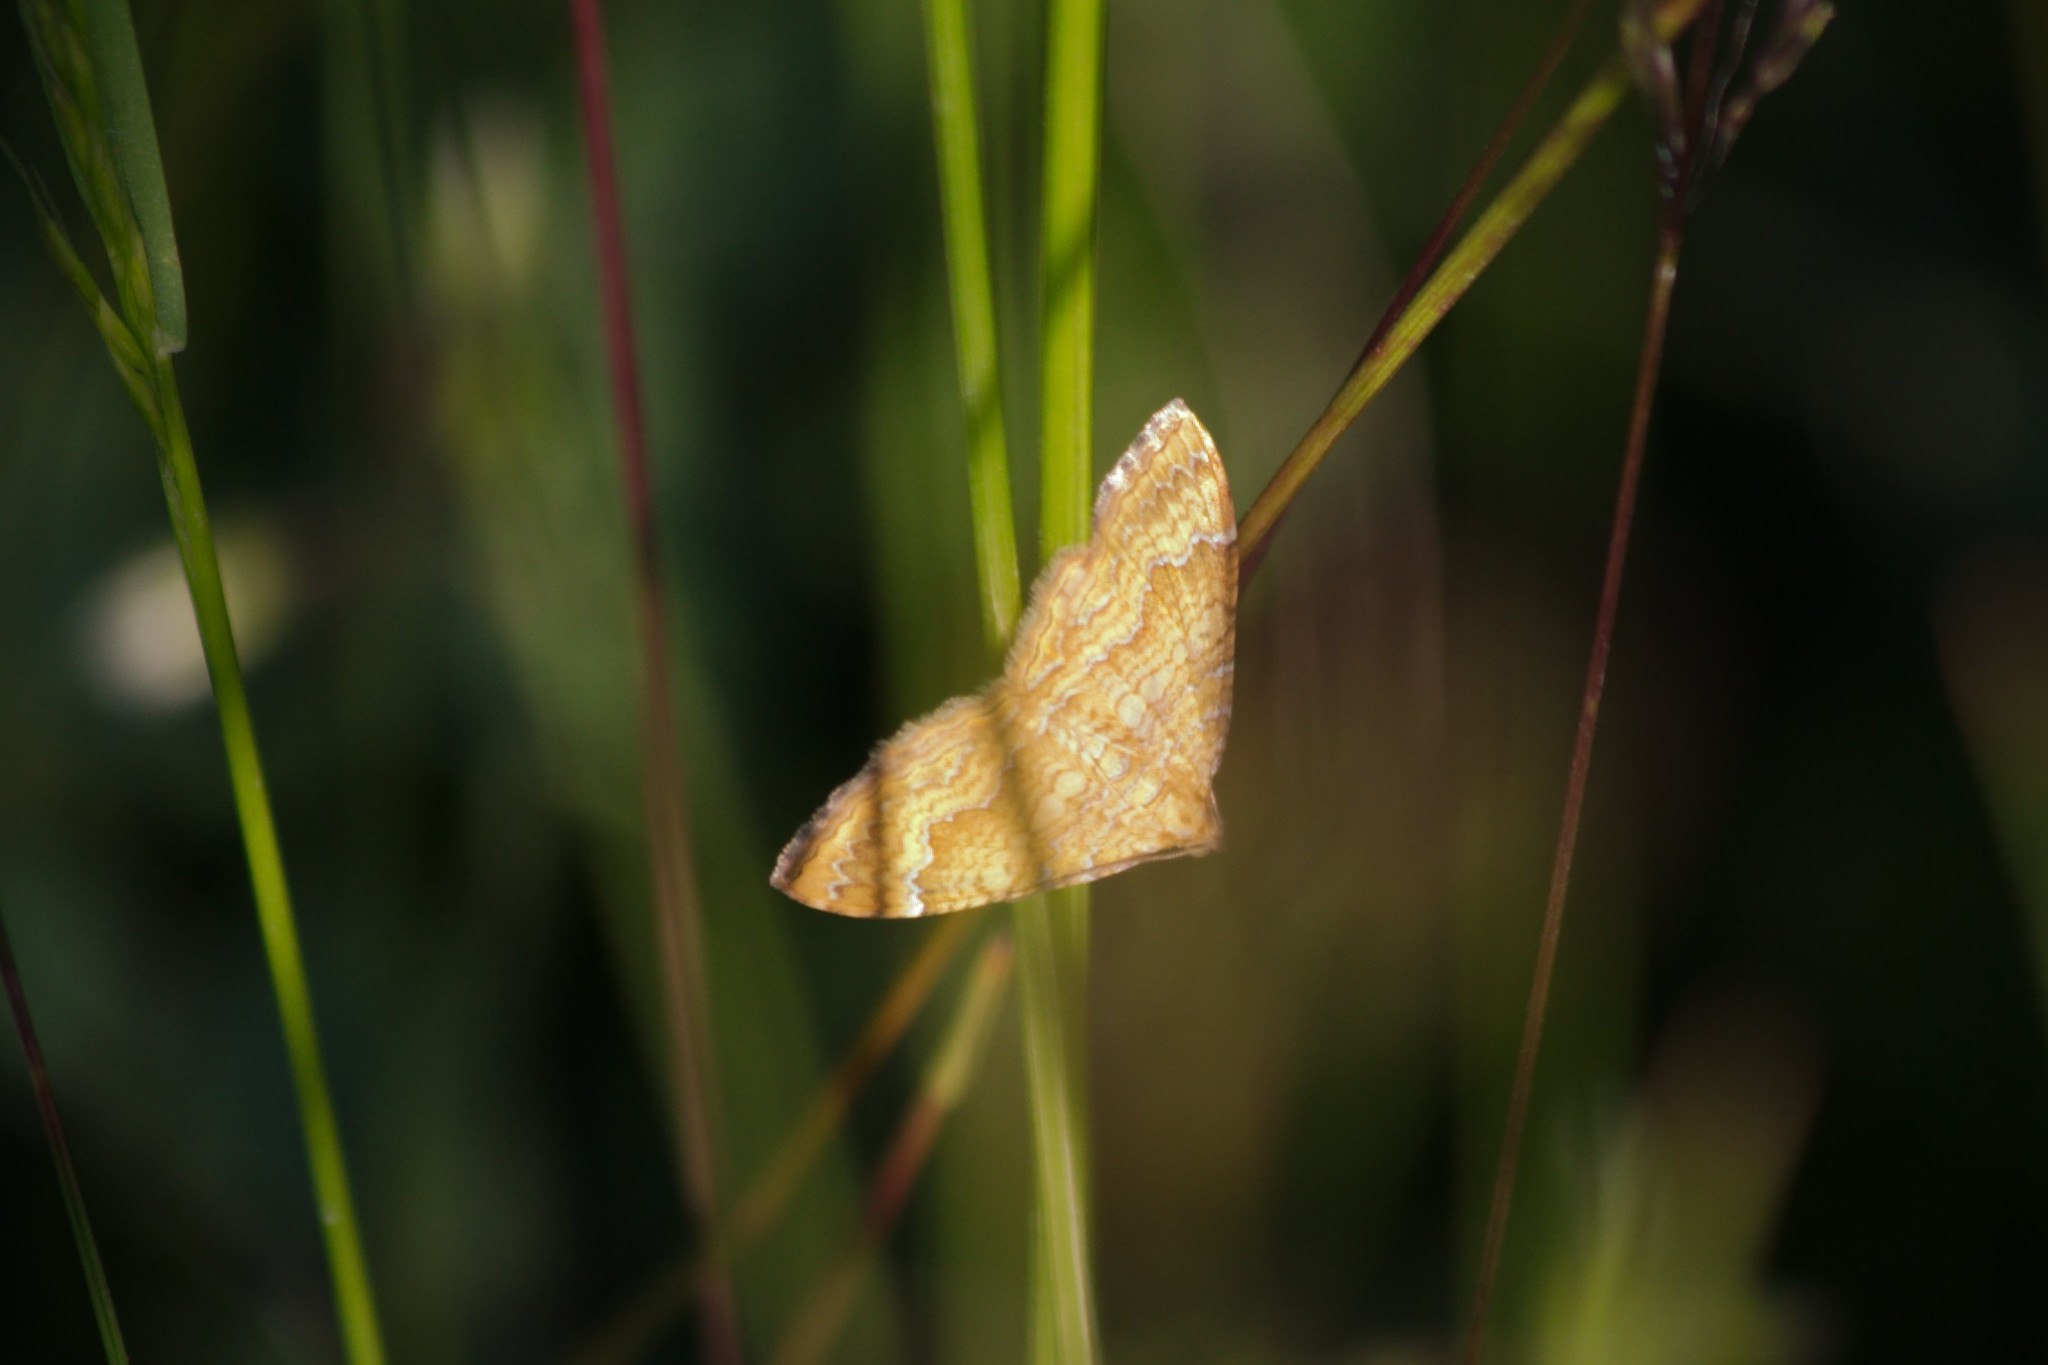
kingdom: Animalia
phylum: Arthropoda
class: Insecta
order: Lepidoptera
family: Geometridae
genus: Camptogramma
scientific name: Camptogramma bilineata
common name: Yellow shell
